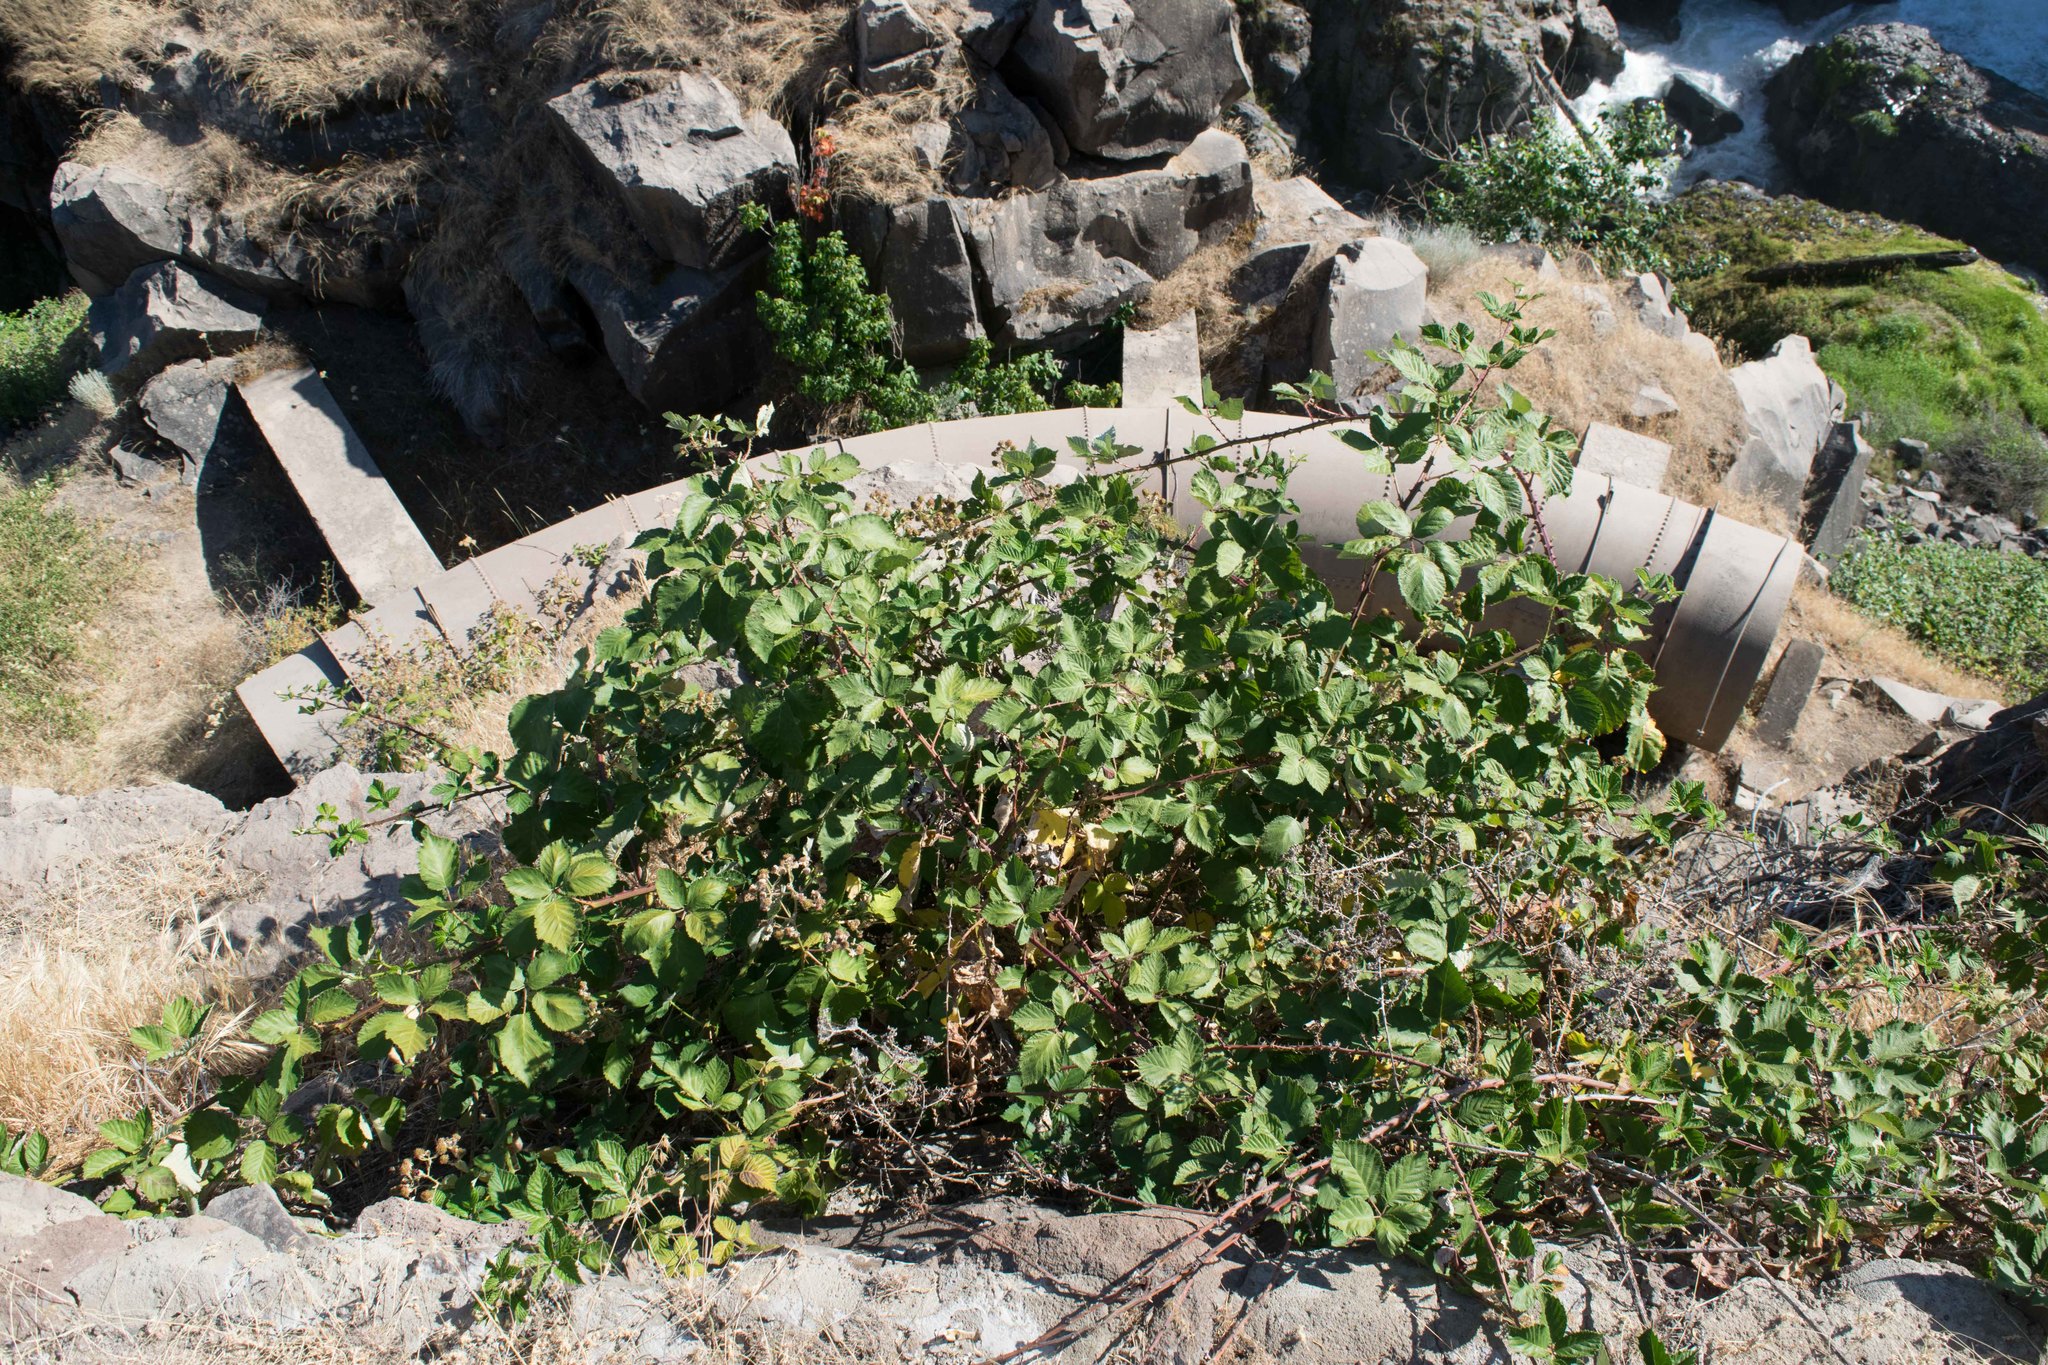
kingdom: Plantae
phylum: Tracheophyta
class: Magnoliopsida
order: Rosales
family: Rosaceae
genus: Rubus
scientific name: Rubus armeniacus
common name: Himalayan blackberry
